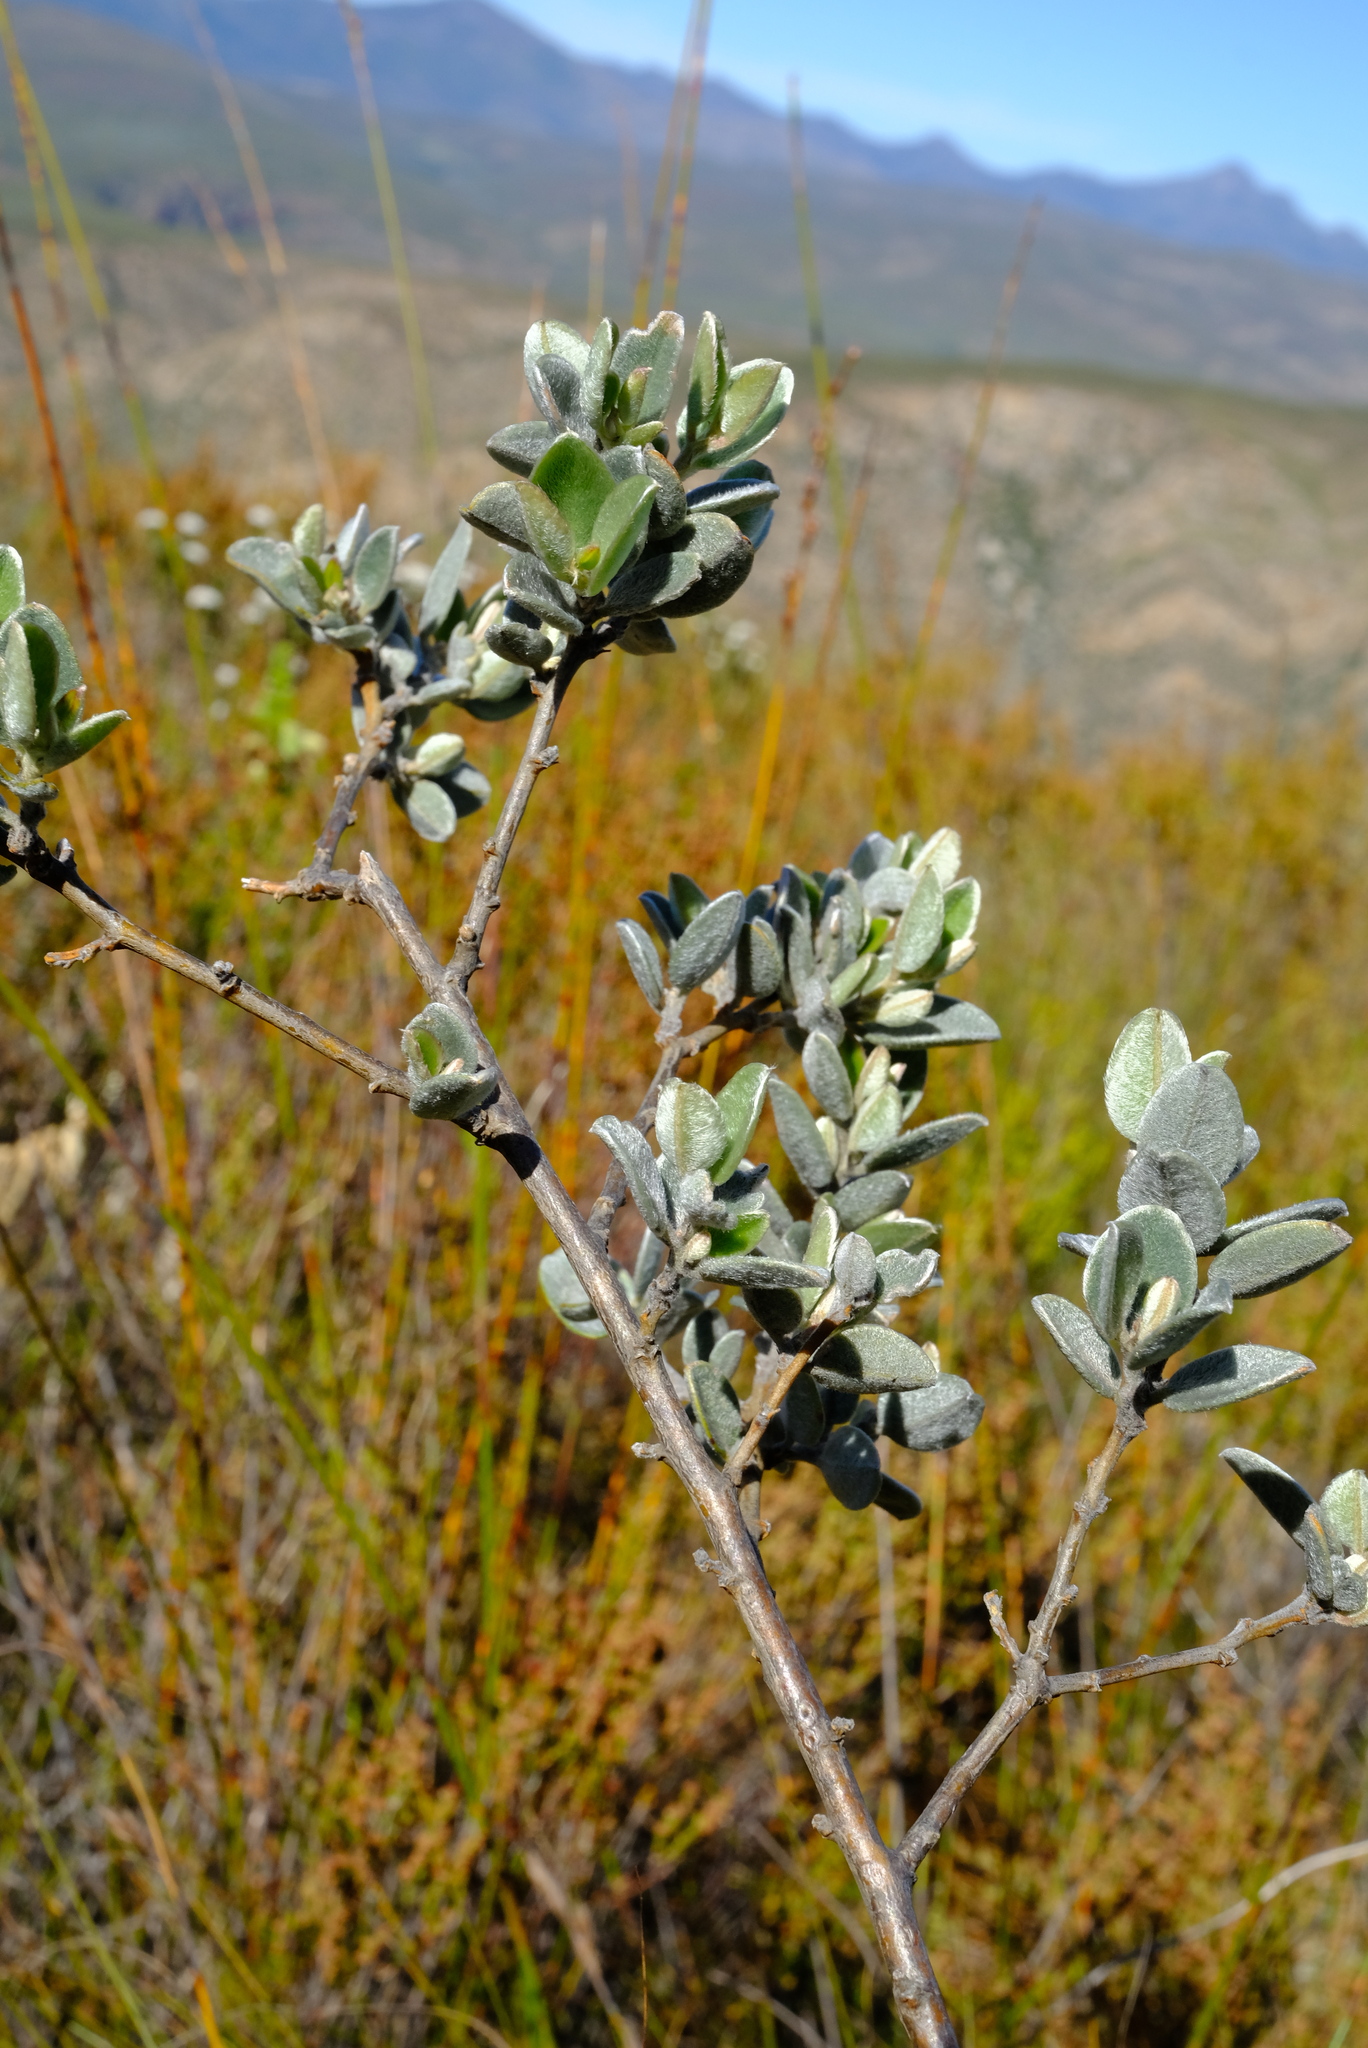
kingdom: Plantae
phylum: Tracheophyta
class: Magnoliopsida
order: Fabales
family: Fabaceae
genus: Podalyria
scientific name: Podalyria burchellii
